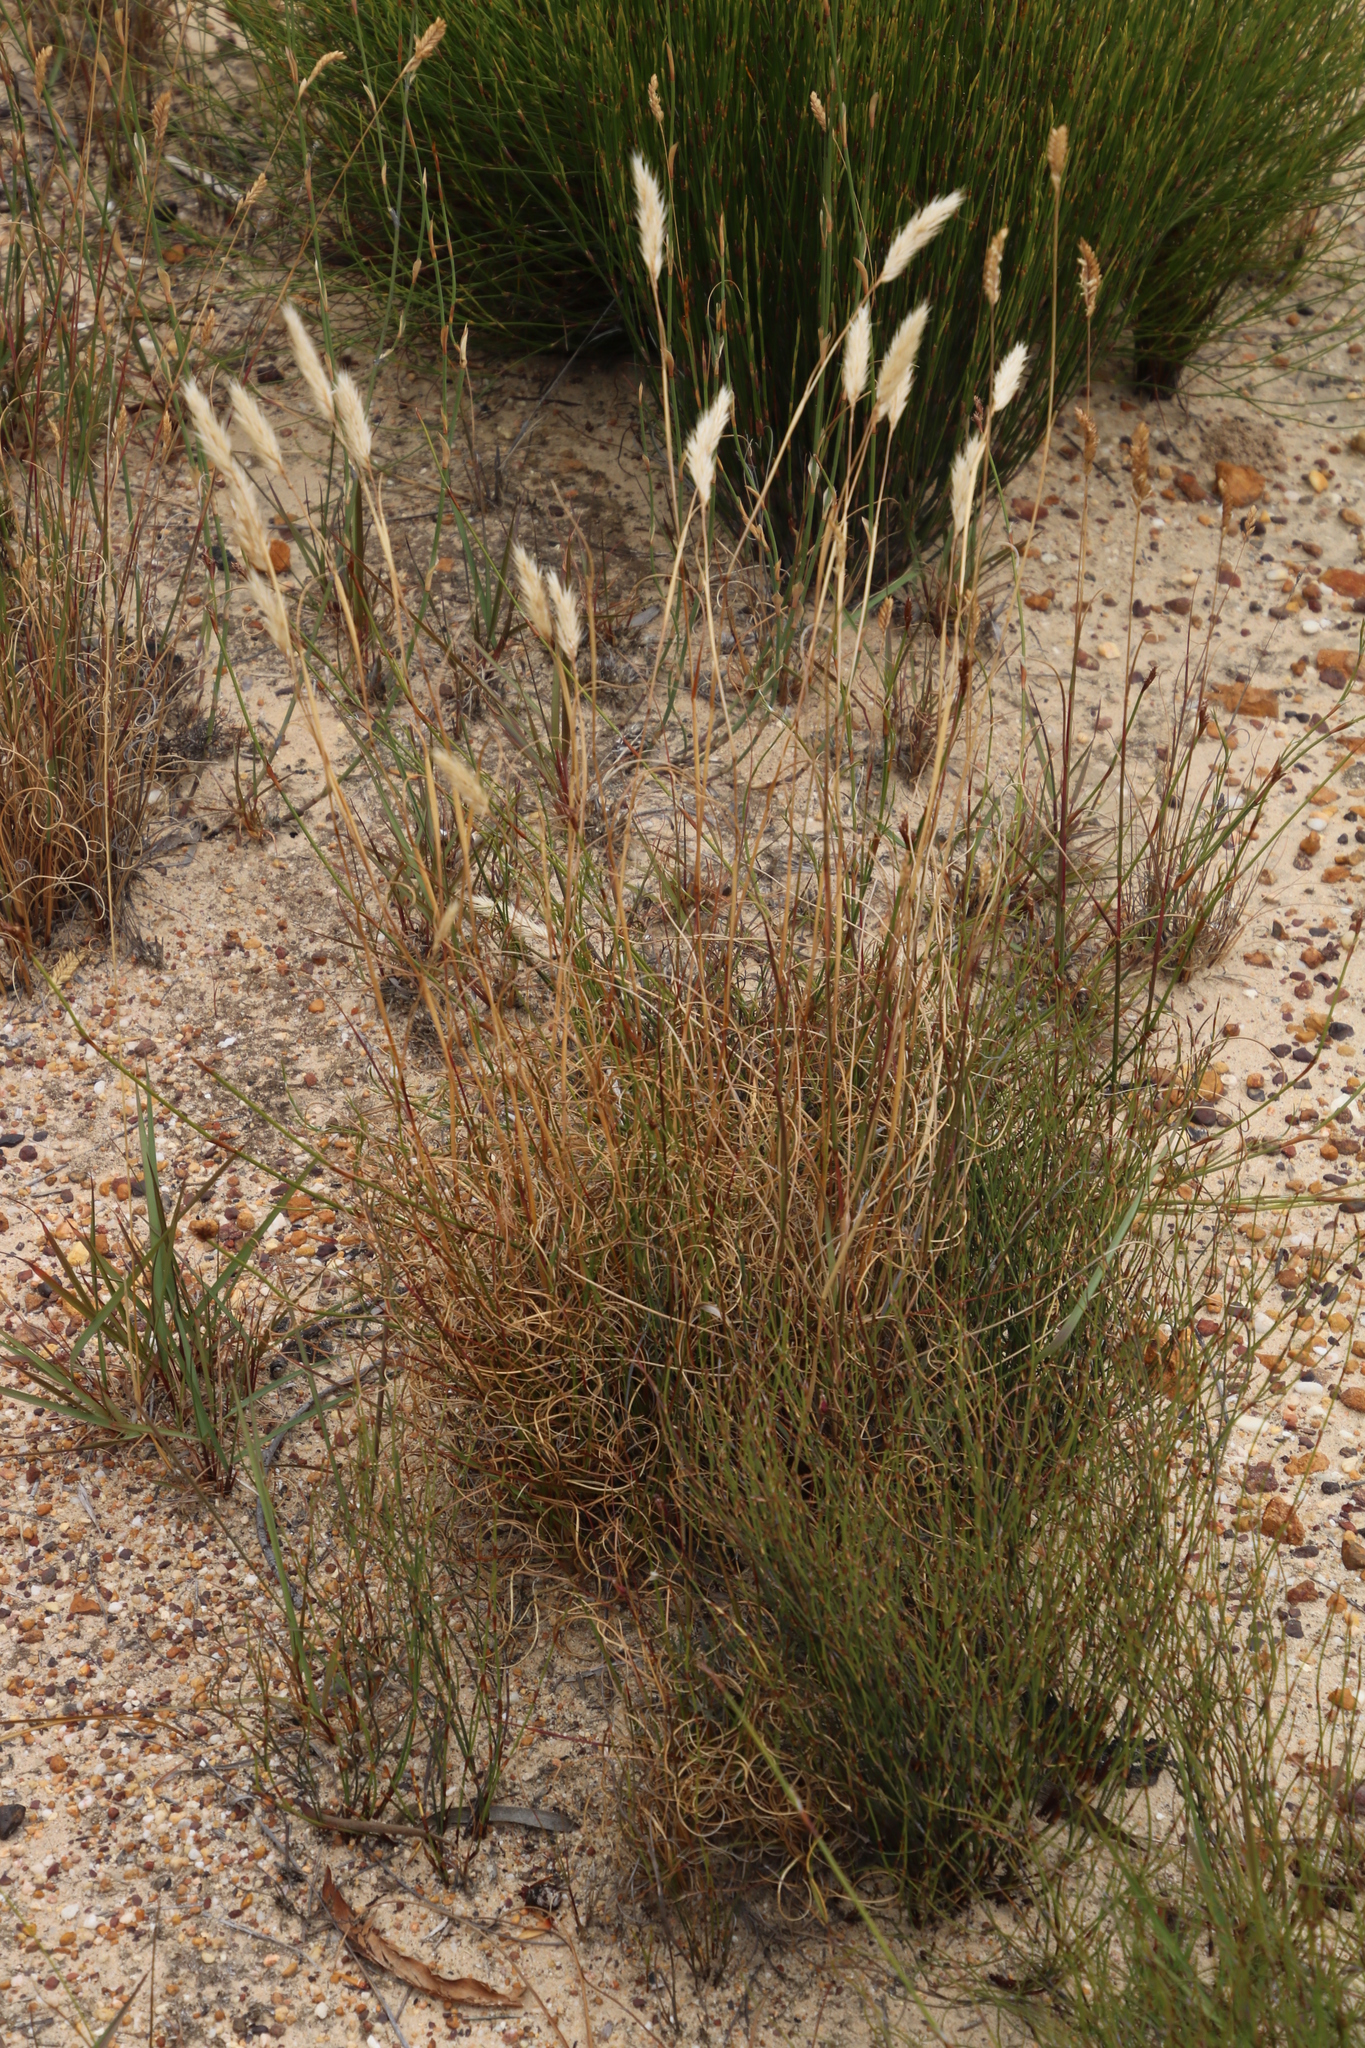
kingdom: Plantae
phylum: Tracheophyta
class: Liliopsida
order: Poales
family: Poaceae
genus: Pentameris
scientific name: Pentameris curvifolia
